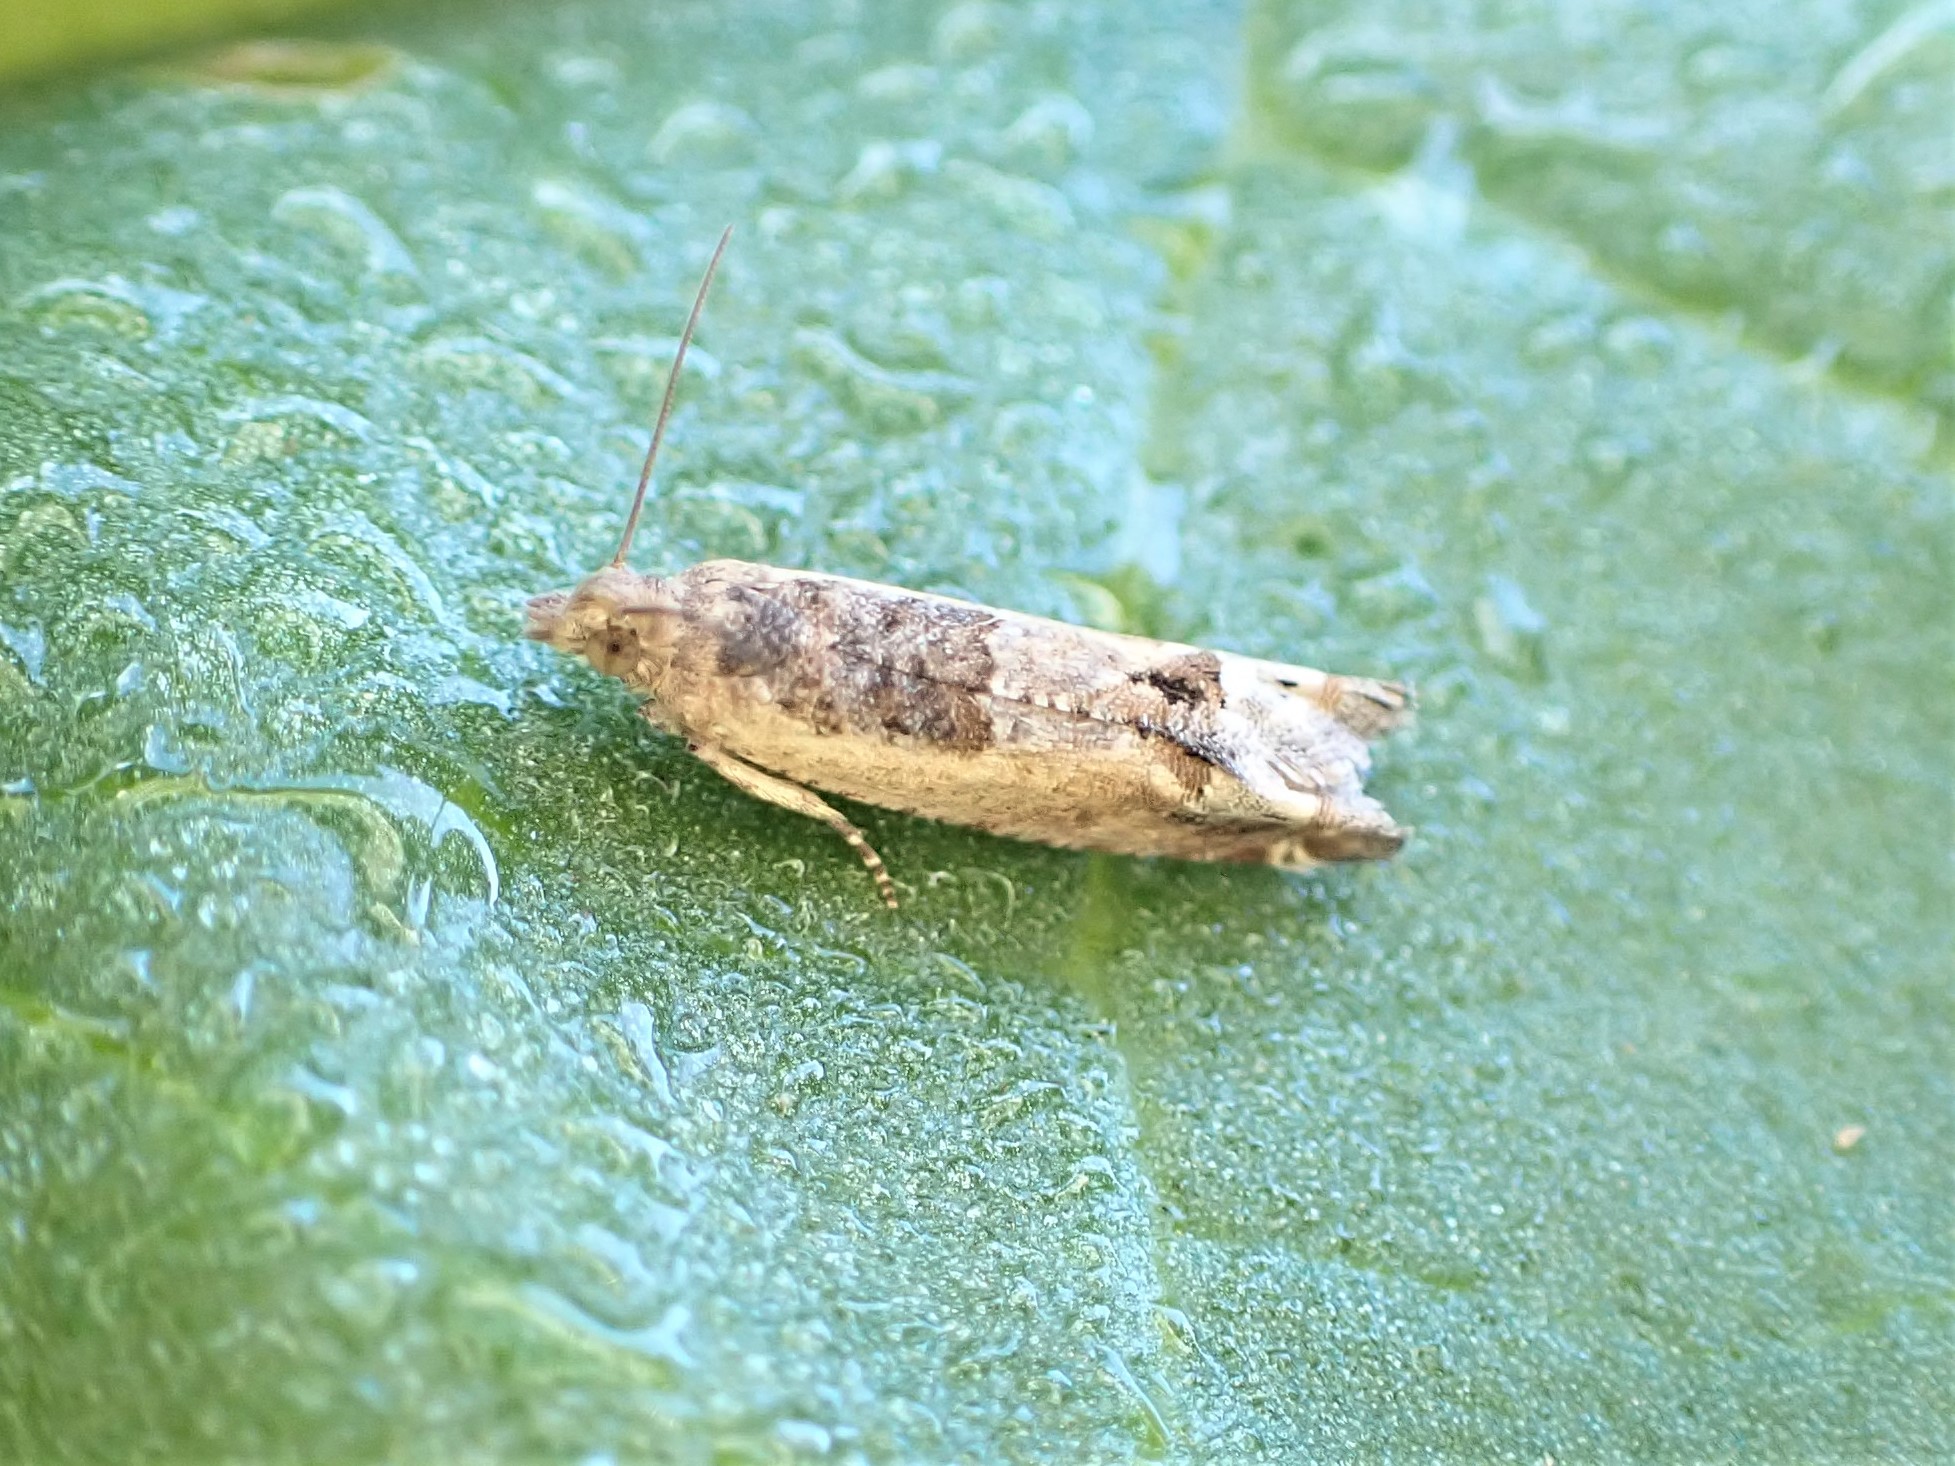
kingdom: Animalia
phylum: Arthropoda
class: Insecta
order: Lepidoptera
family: Tortricidae
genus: Crocidosema
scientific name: Crocidosema plebejana
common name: Southern bell
